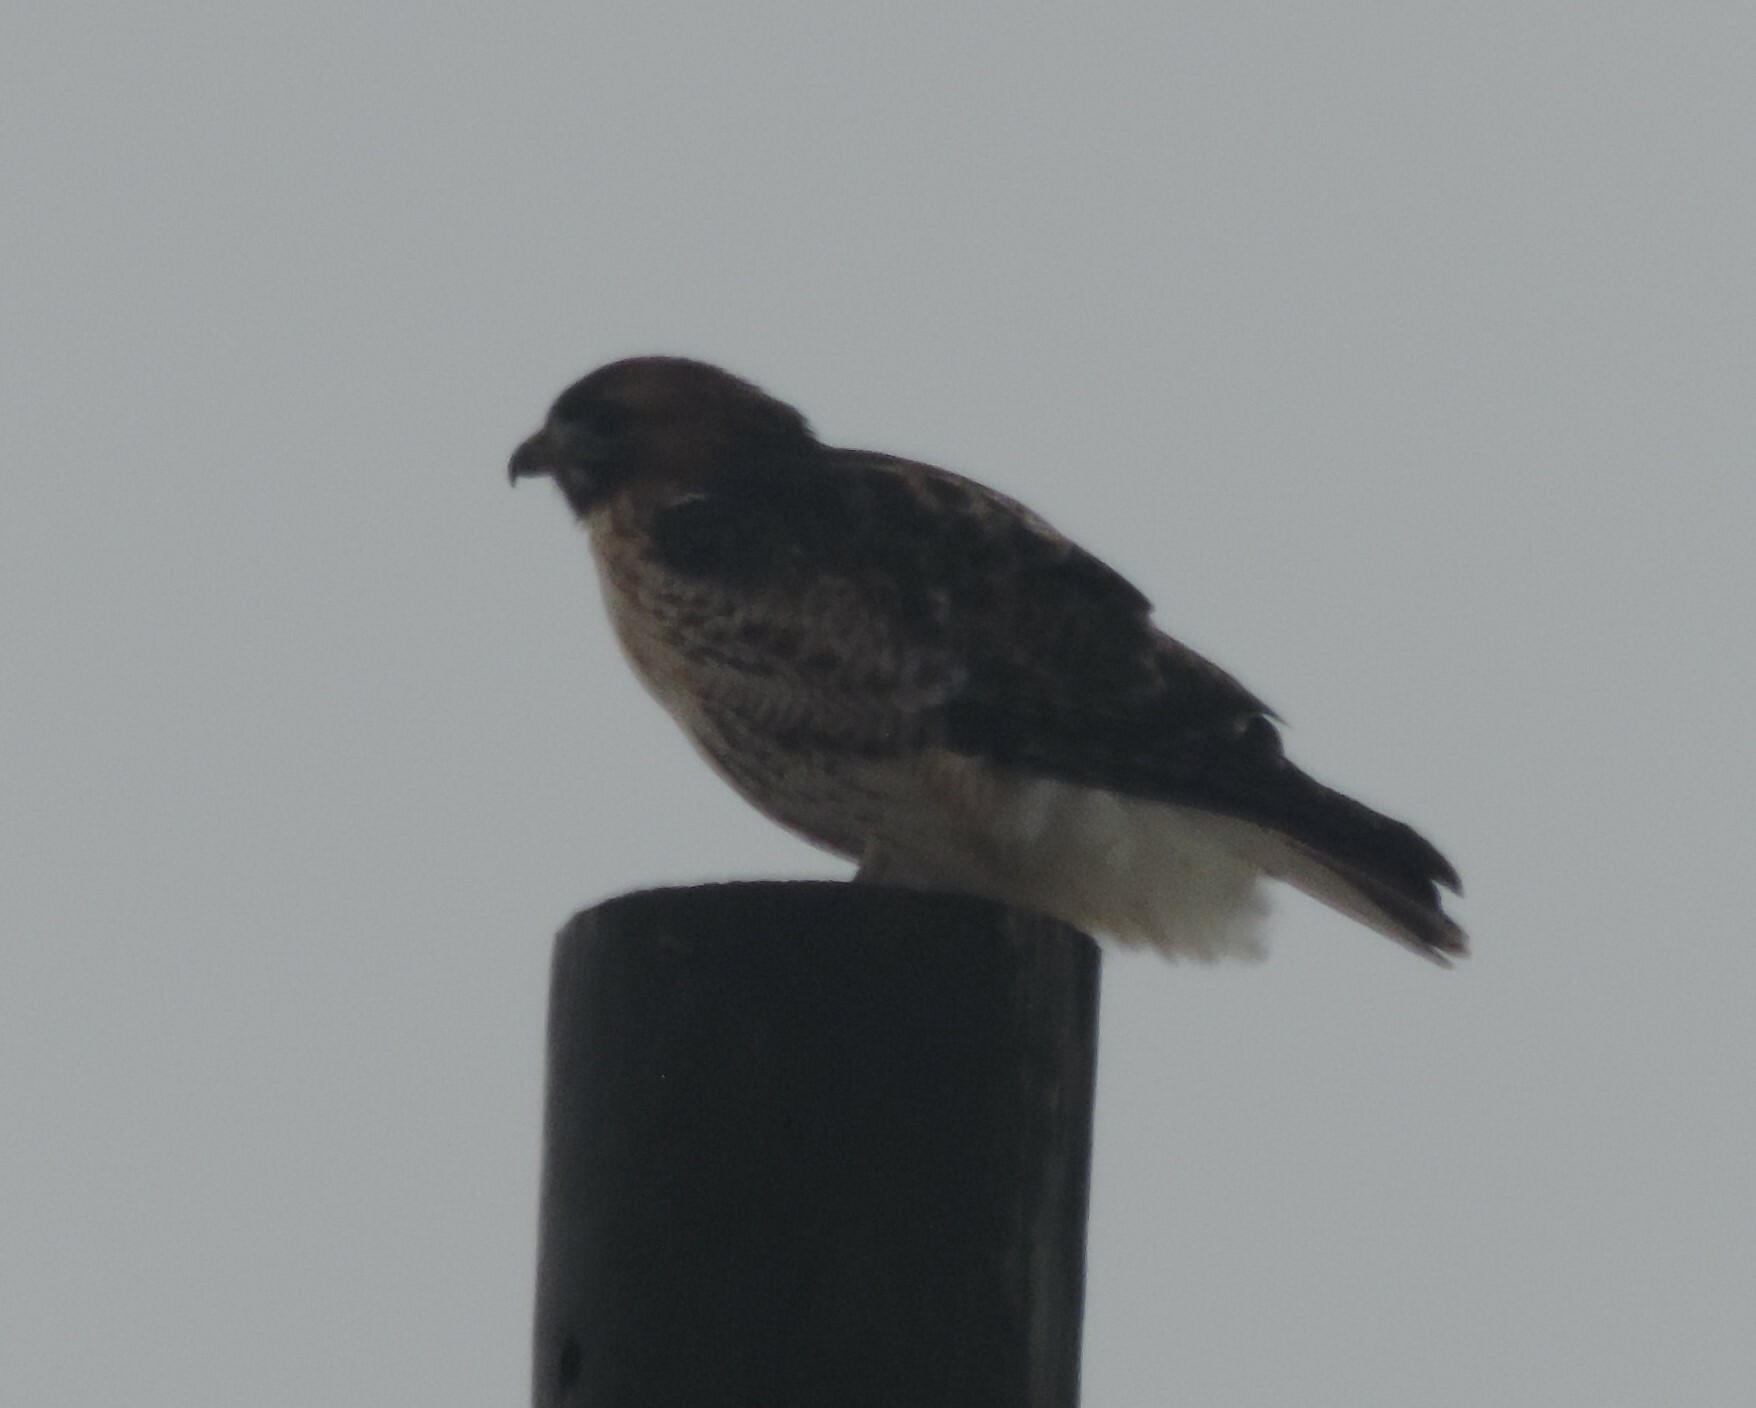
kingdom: Animalia
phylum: Chordata
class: Aves
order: Accipitriformes
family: Accipitridae
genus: Buteo
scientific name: Buteo jamaicensis
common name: Red-tailed hawk
